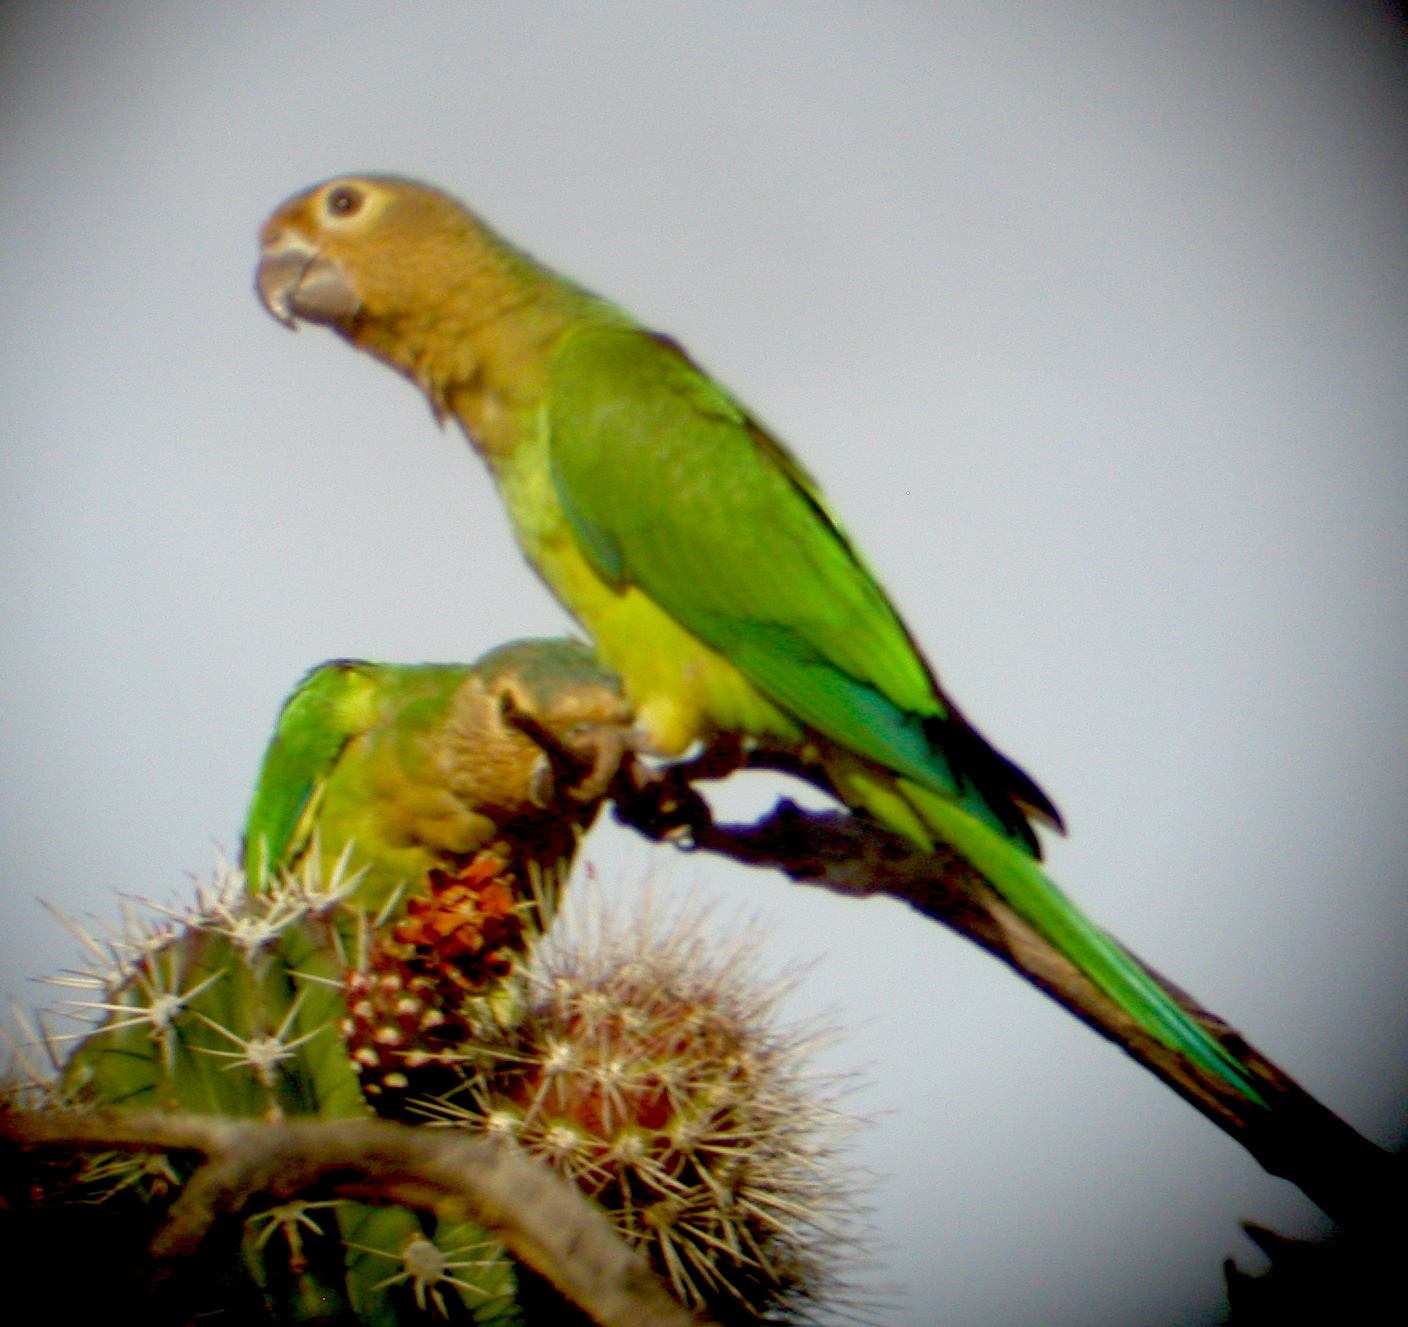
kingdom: Animalia
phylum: Chordata
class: Aves
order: Psittaciformes
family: Psittacidae
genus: Aratinga
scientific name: Aratinga pertinax
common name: Brown-throated parakeet
